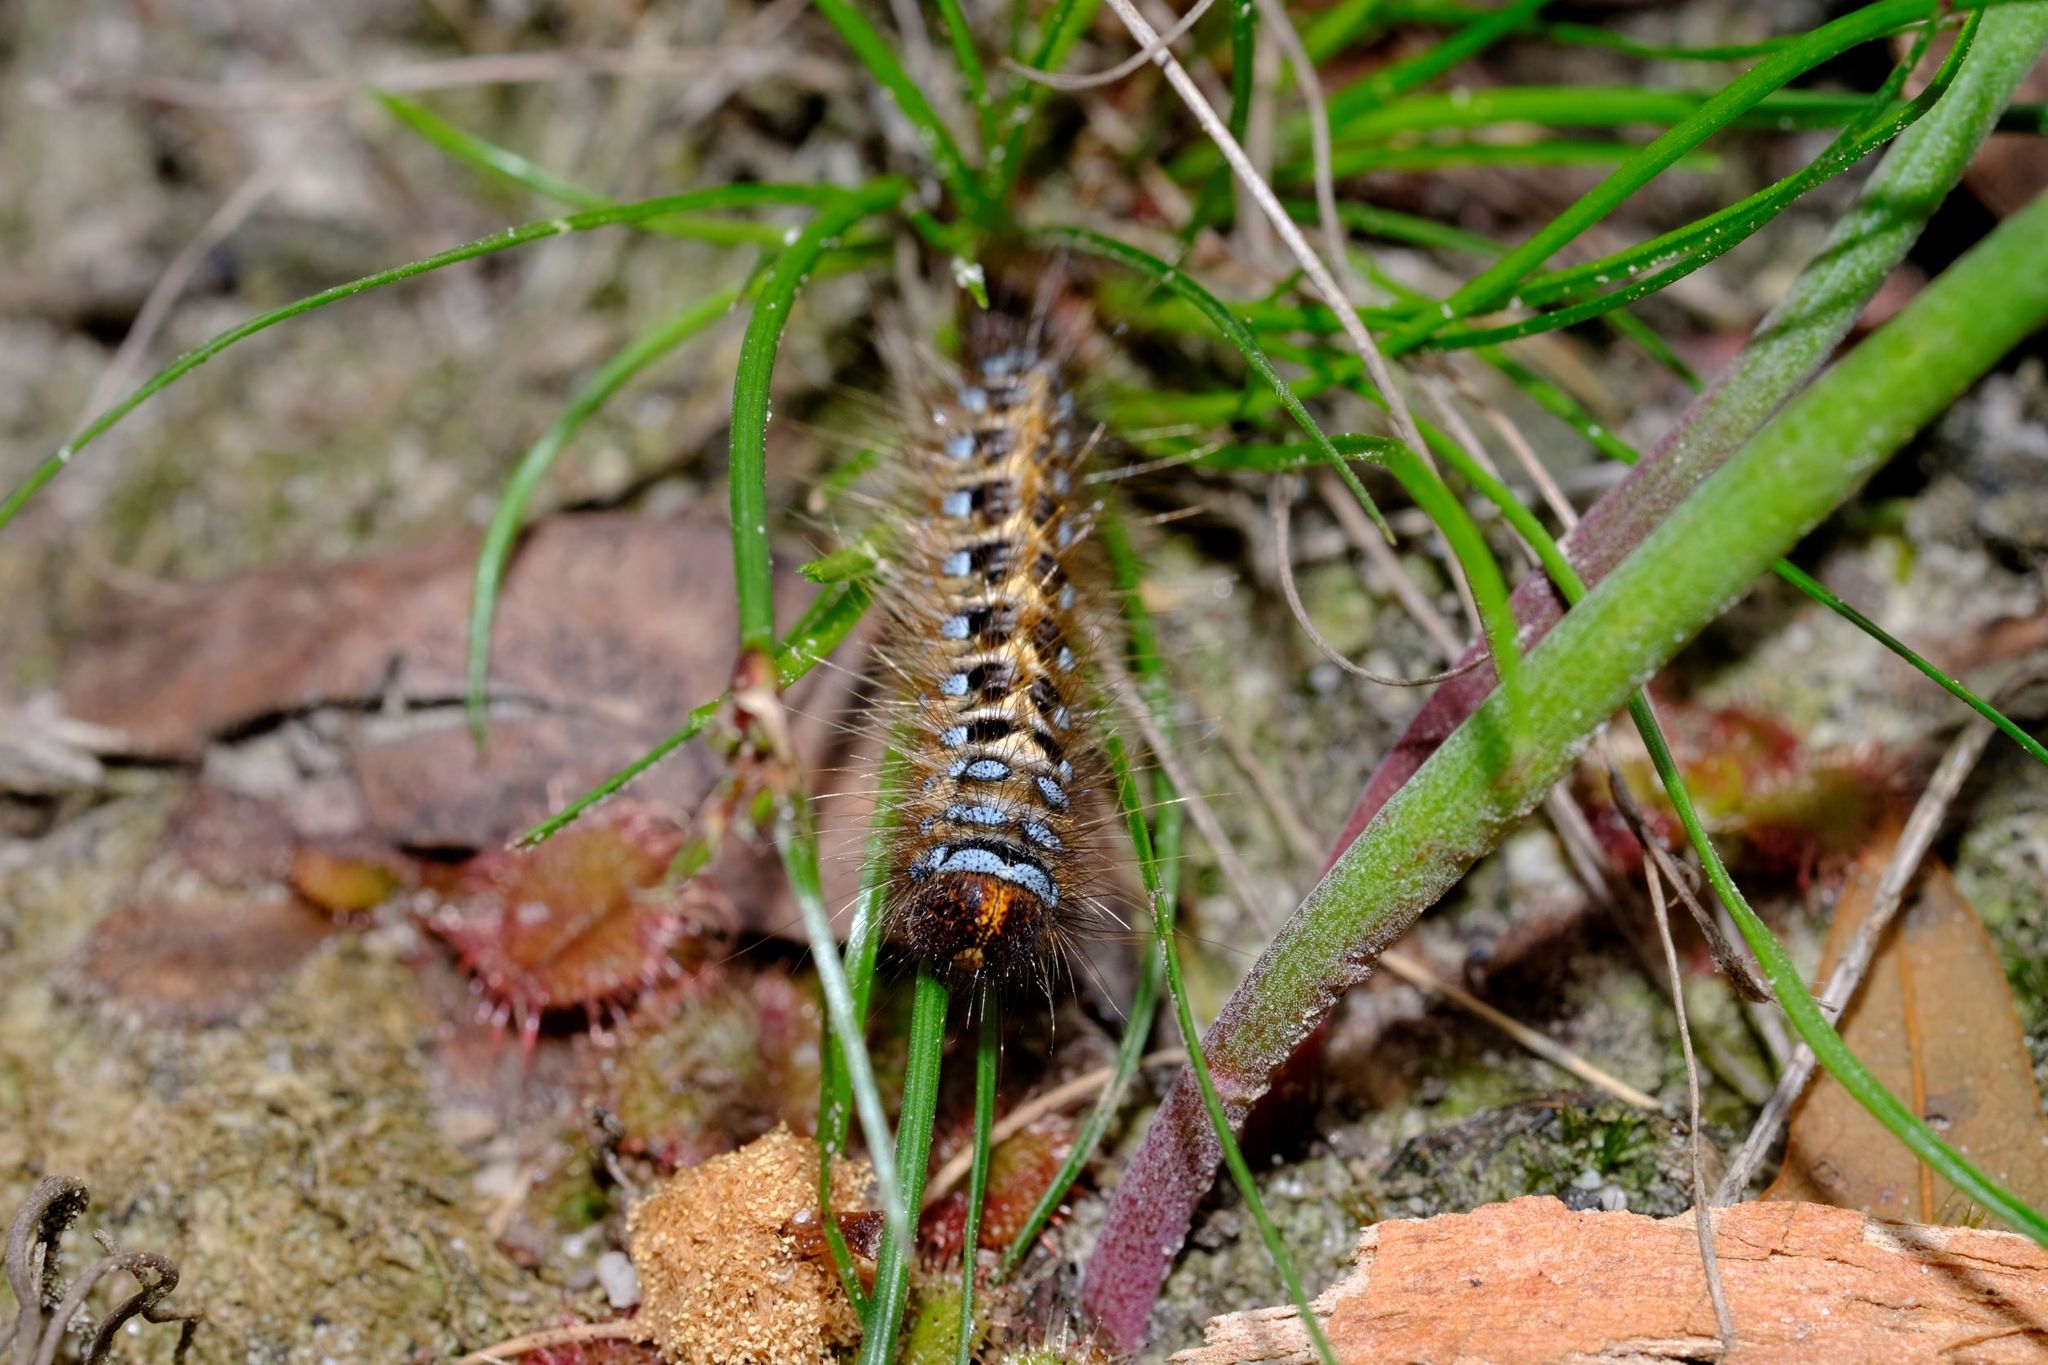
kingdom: Animalia
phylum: Arthropoda
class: Insecta
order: Lepidoptera
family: Anthelidae
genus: Pterolocera
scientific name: Pterolocera leucocera
